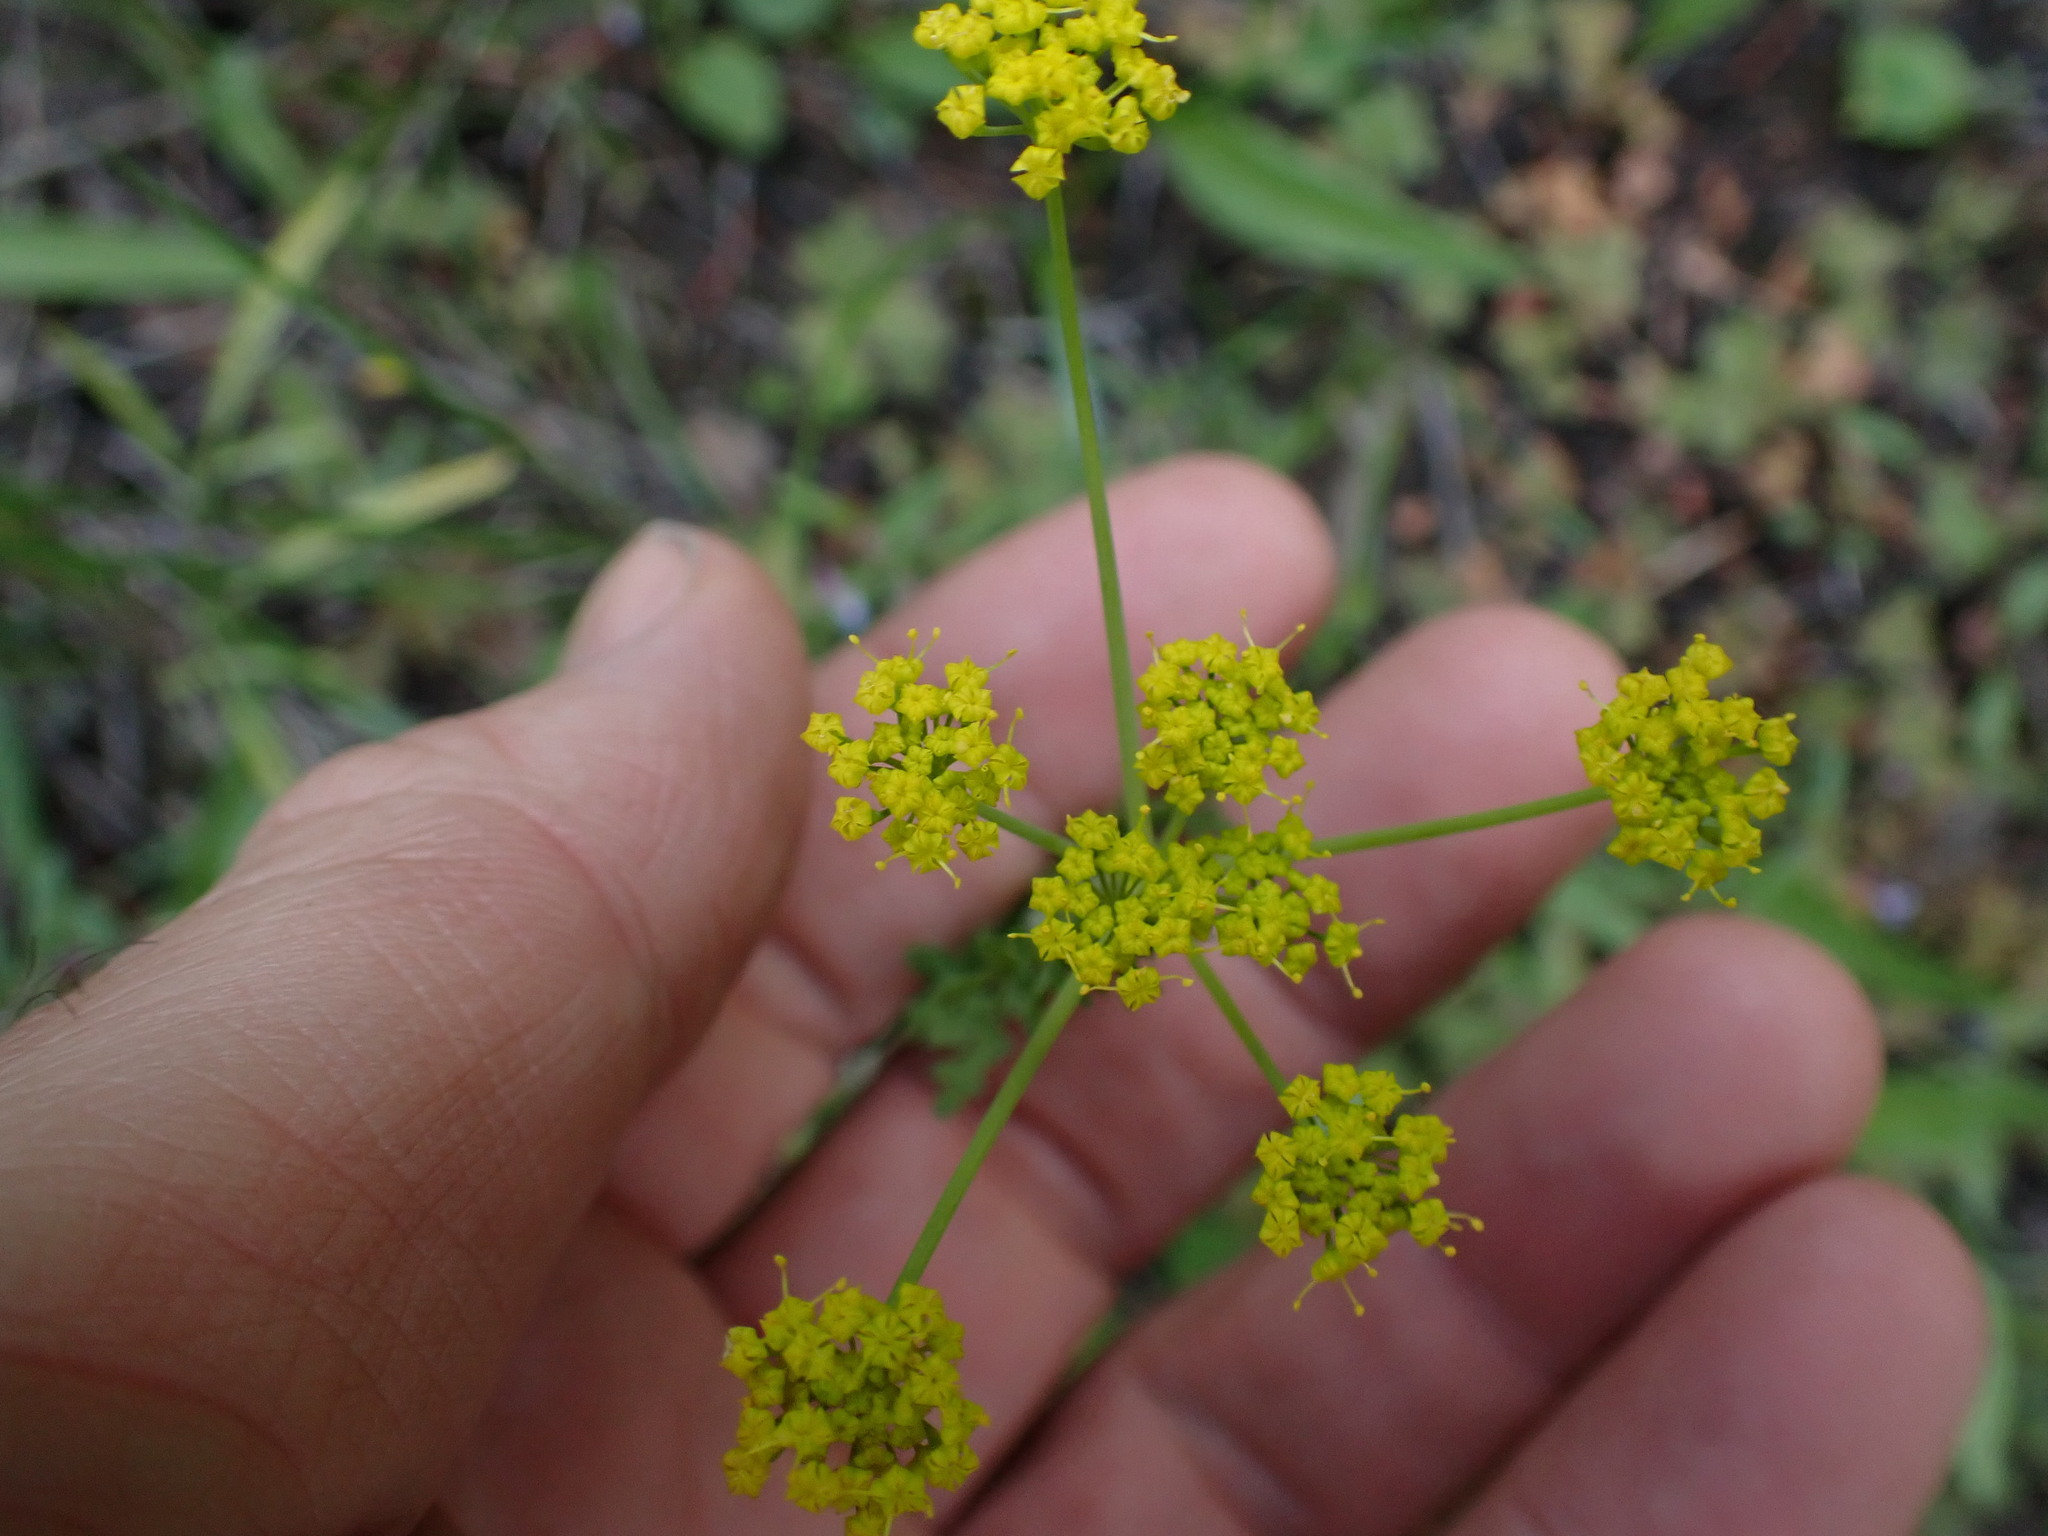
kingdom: Plantae
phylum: Tracheophyta
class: Magnoliopsida
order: Apiales
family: Apiaceae
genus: Lomatium
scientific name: Lomatium ambiguum
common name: Lacy lomatium
